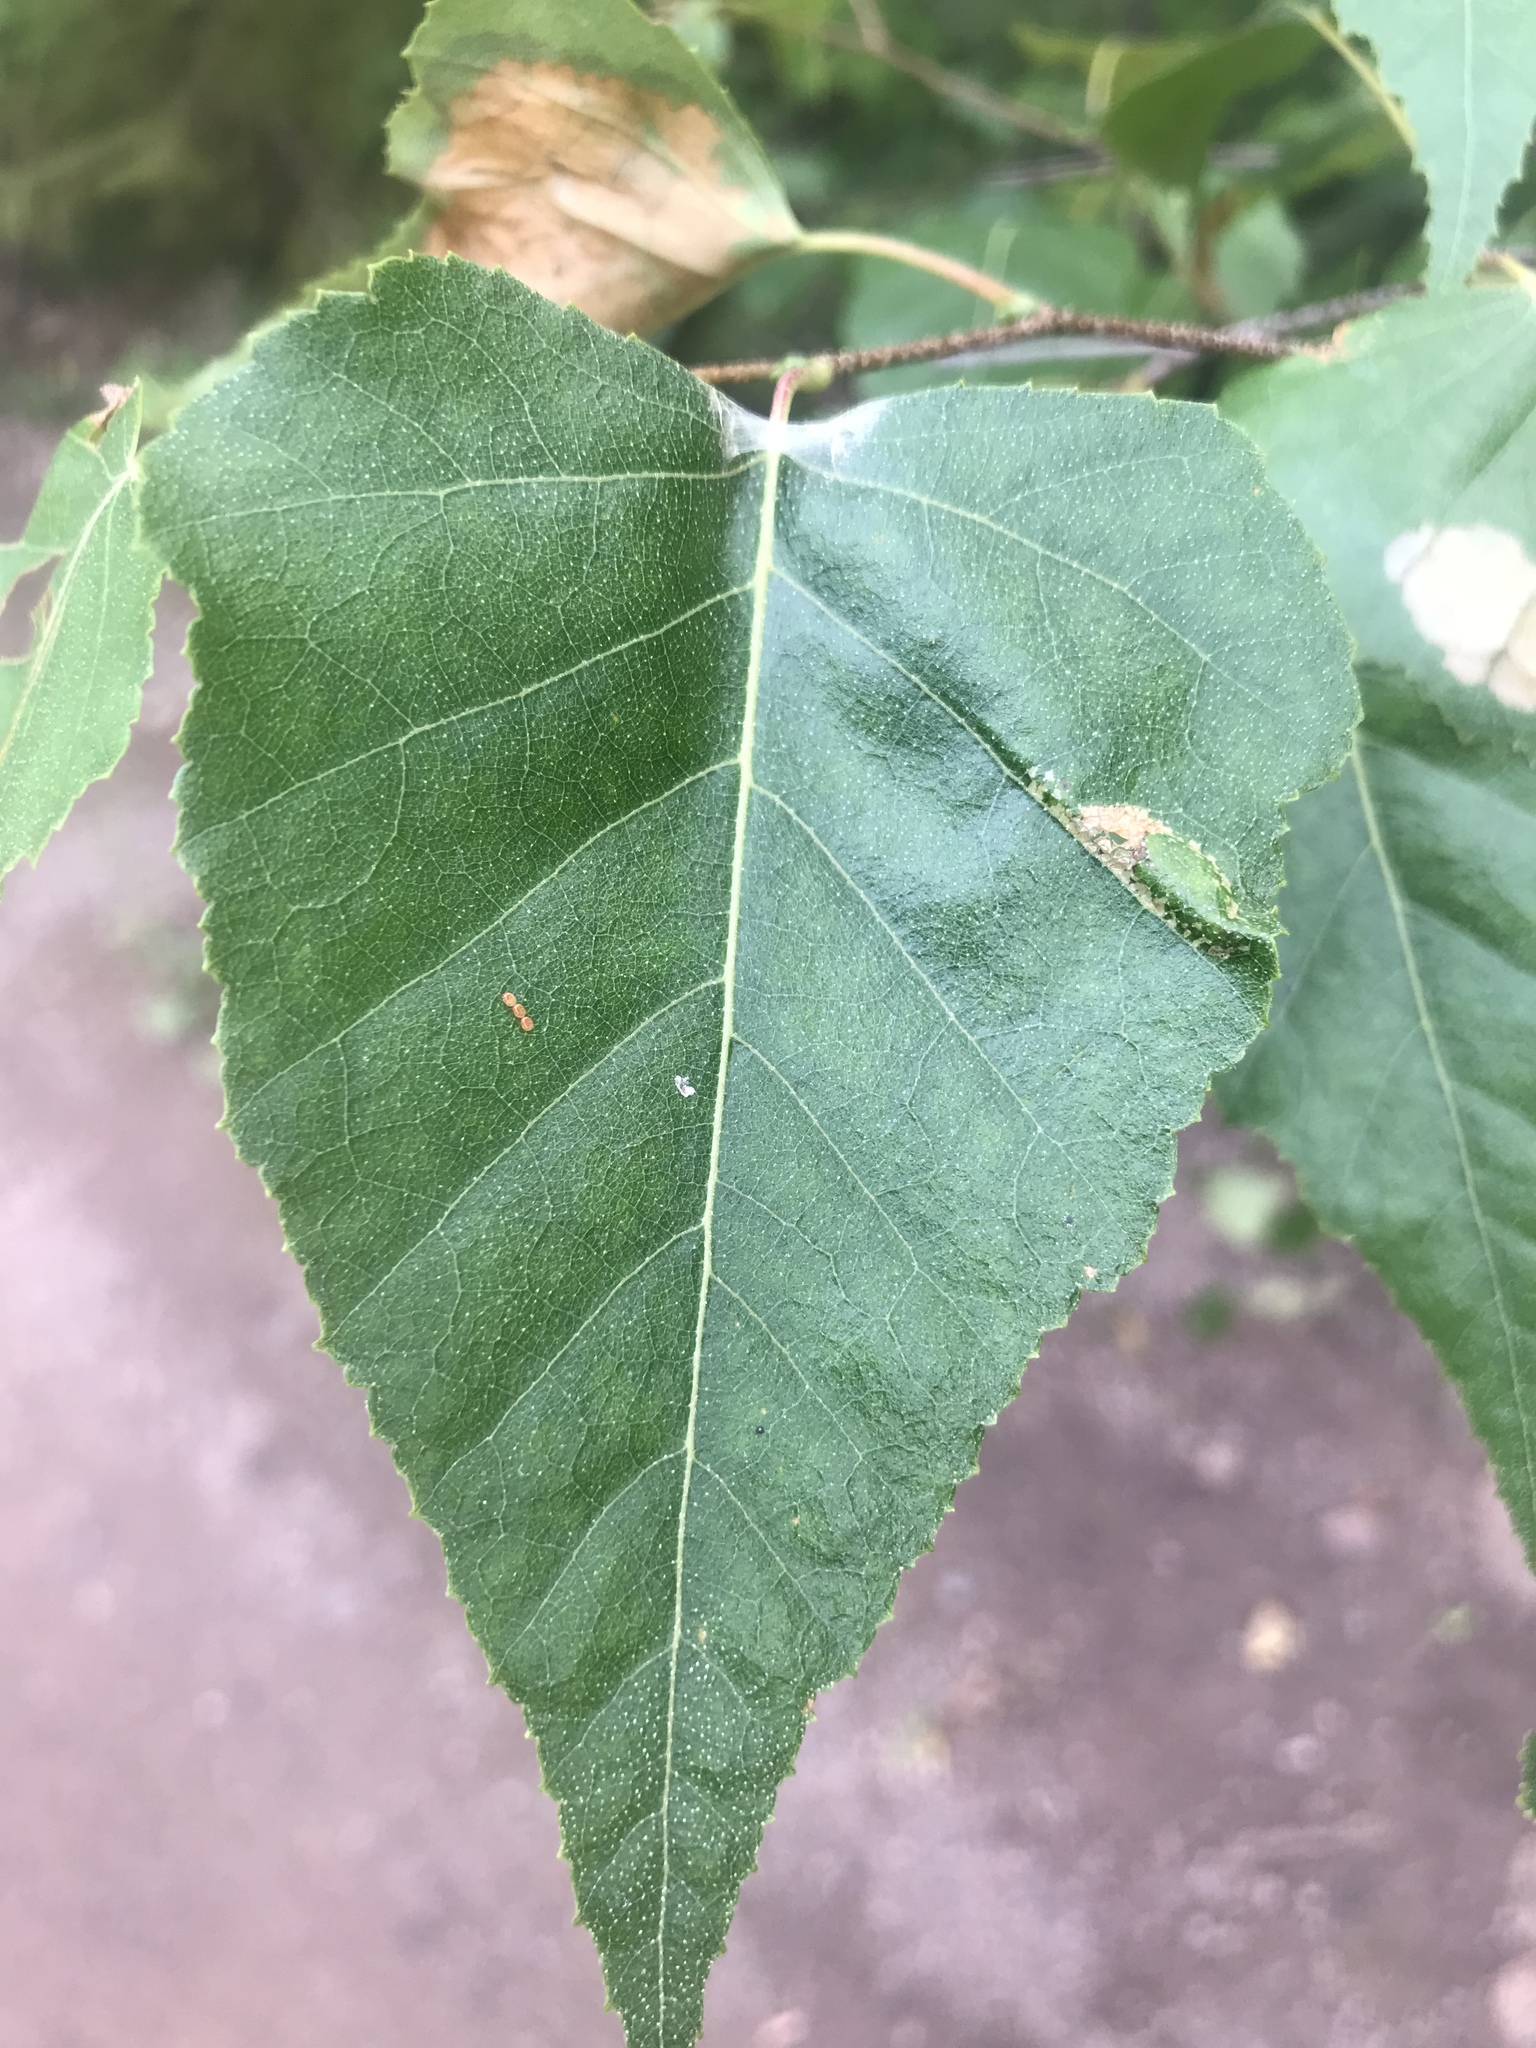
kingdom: Plantae
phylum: Tracheophyta
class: Magnoliopsida
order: Fagales
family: Betulaceae
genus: Betula
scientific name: Betula populifolia
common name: Fire birch
